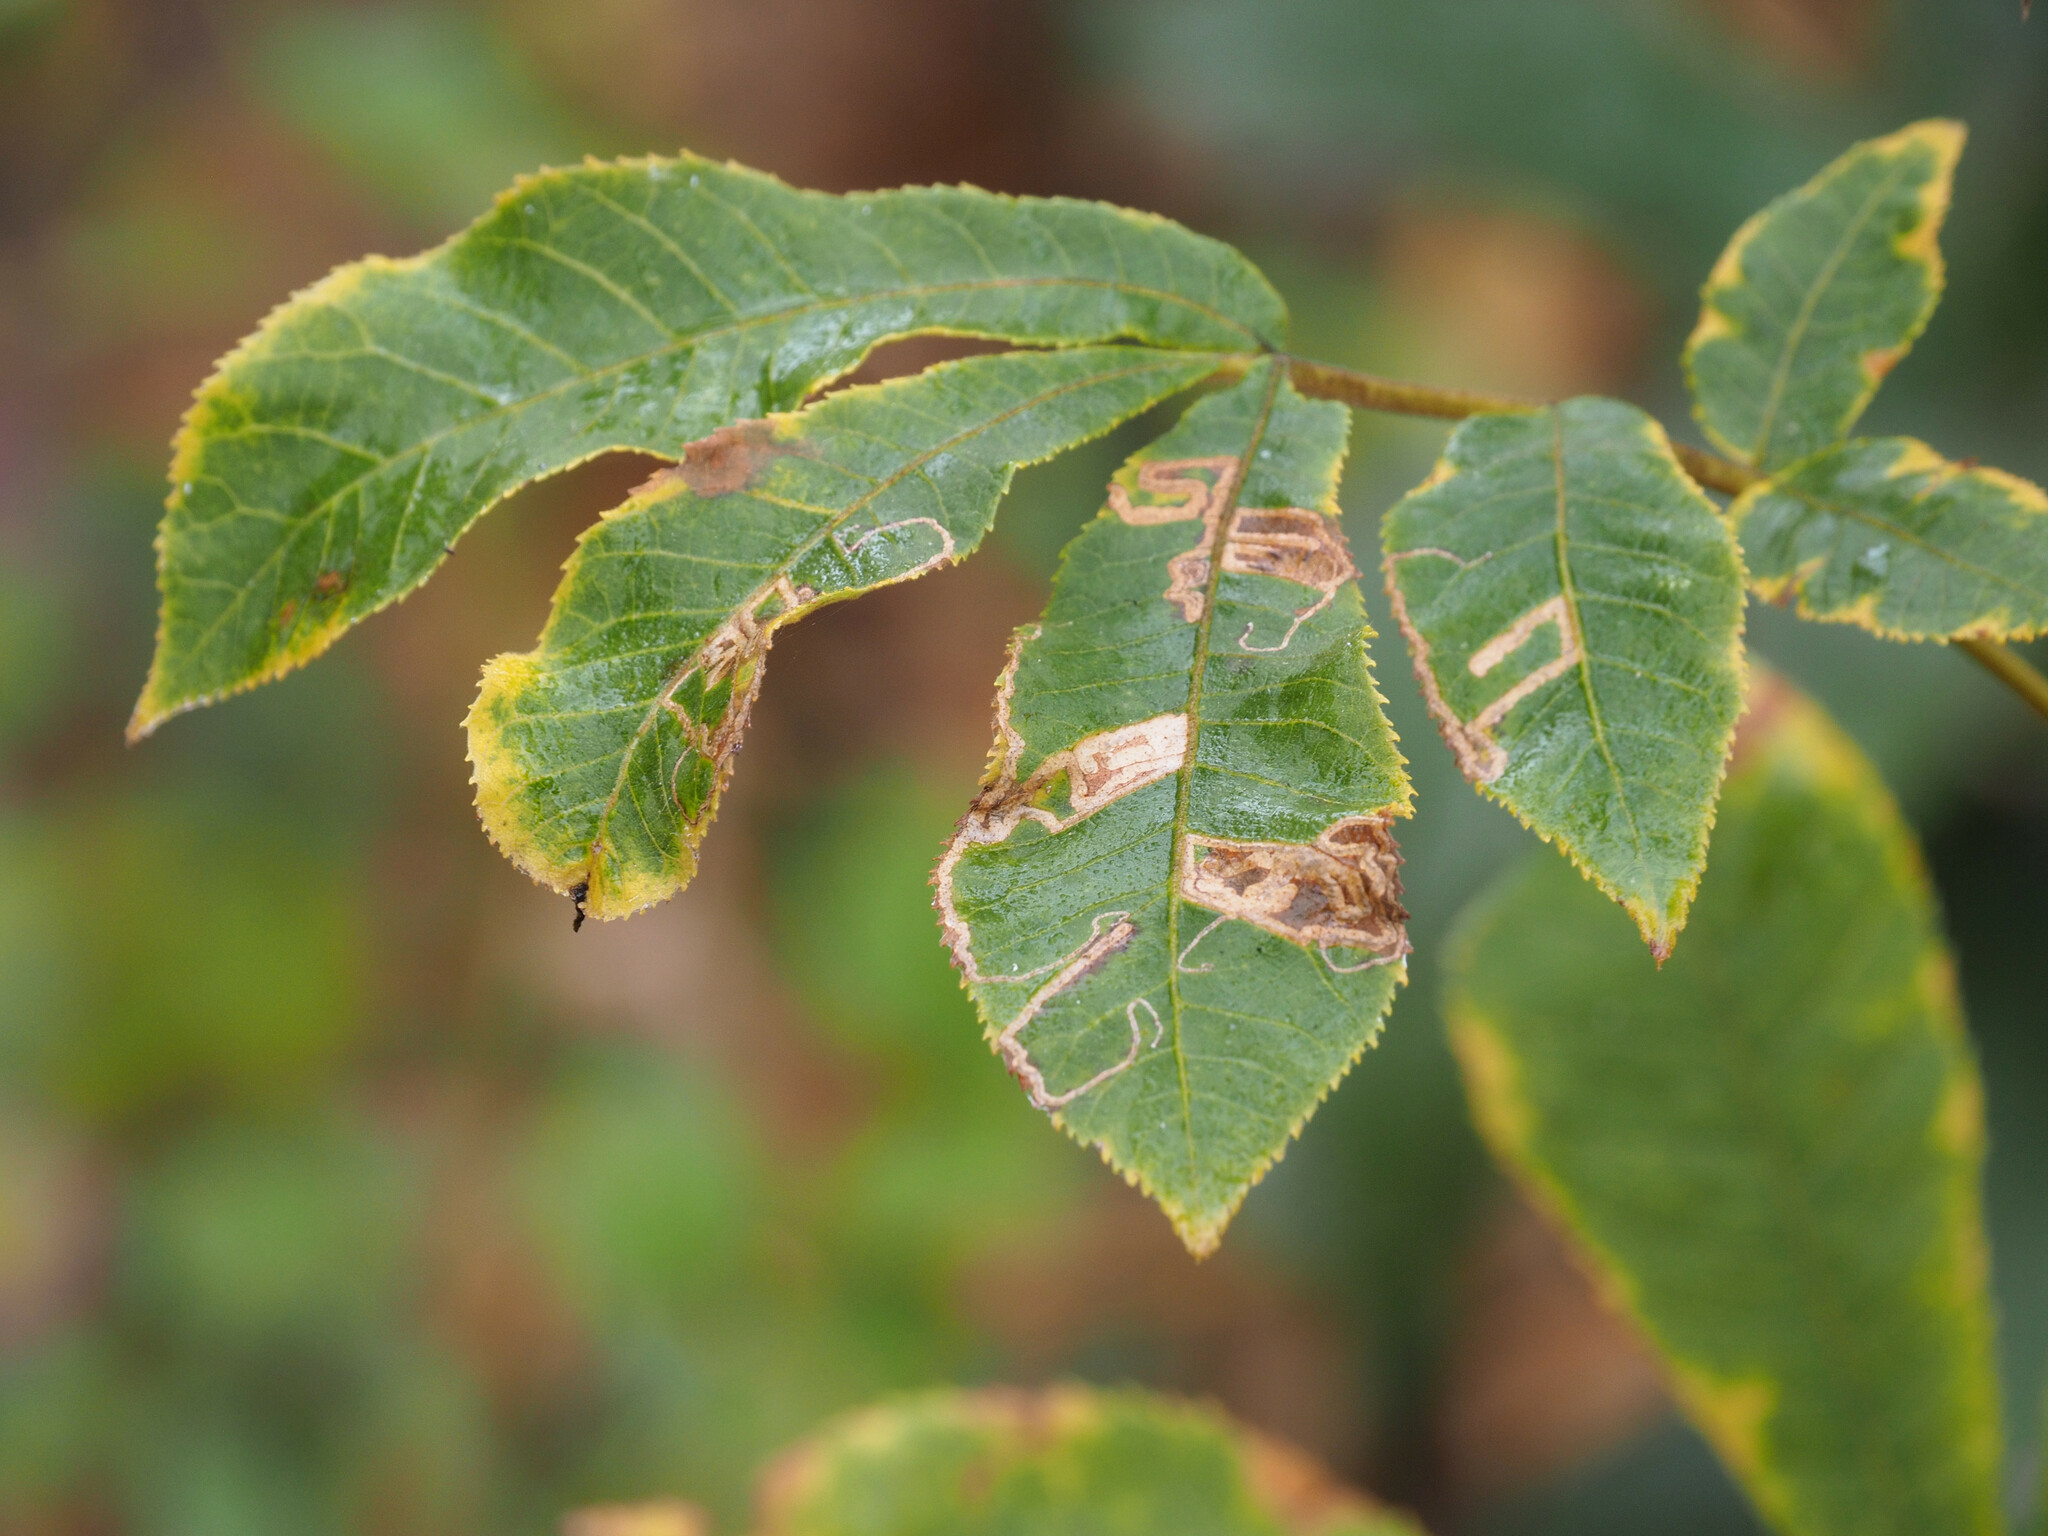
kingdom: Animalia
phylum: Arthropoda
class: Insecta
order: Lepidoptera
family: Nepticulidae
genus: Stigmella
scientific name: Stigmella caryaefoliella
